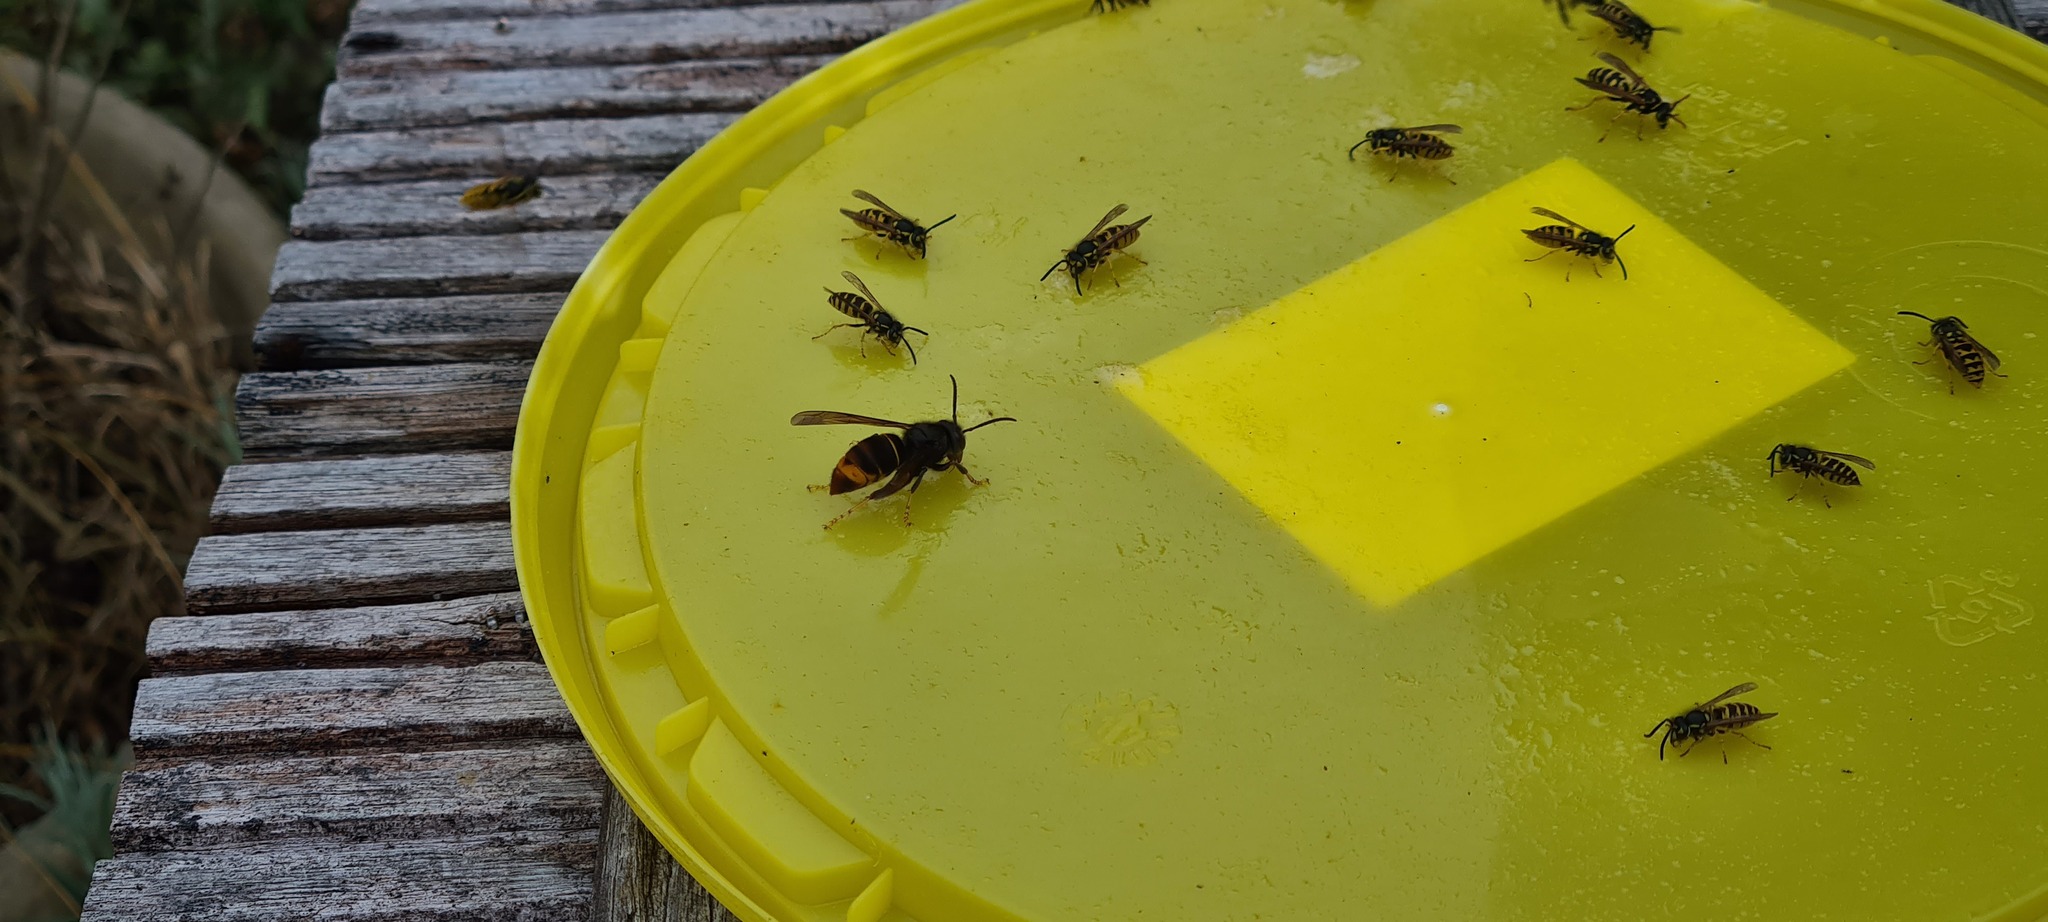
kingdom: Animalia
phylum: Arthropoda
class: Insecta
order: Hymenoptera
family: Vespidae
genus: Vespa
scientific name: Vespa velutina
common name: Asian hornet
